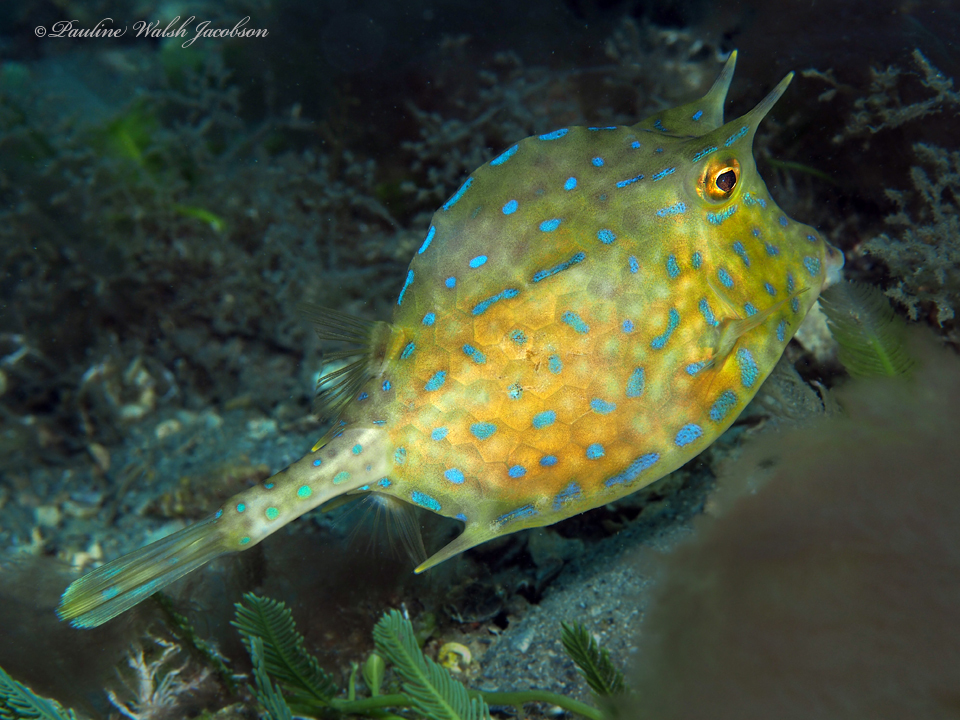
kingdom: Animalia
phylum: Chordata
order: Tetraodontiformes
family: Ostraciidae
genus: Acanthostracion
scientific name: Acanthostracion quadricornis
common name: Scrawled cowfish
